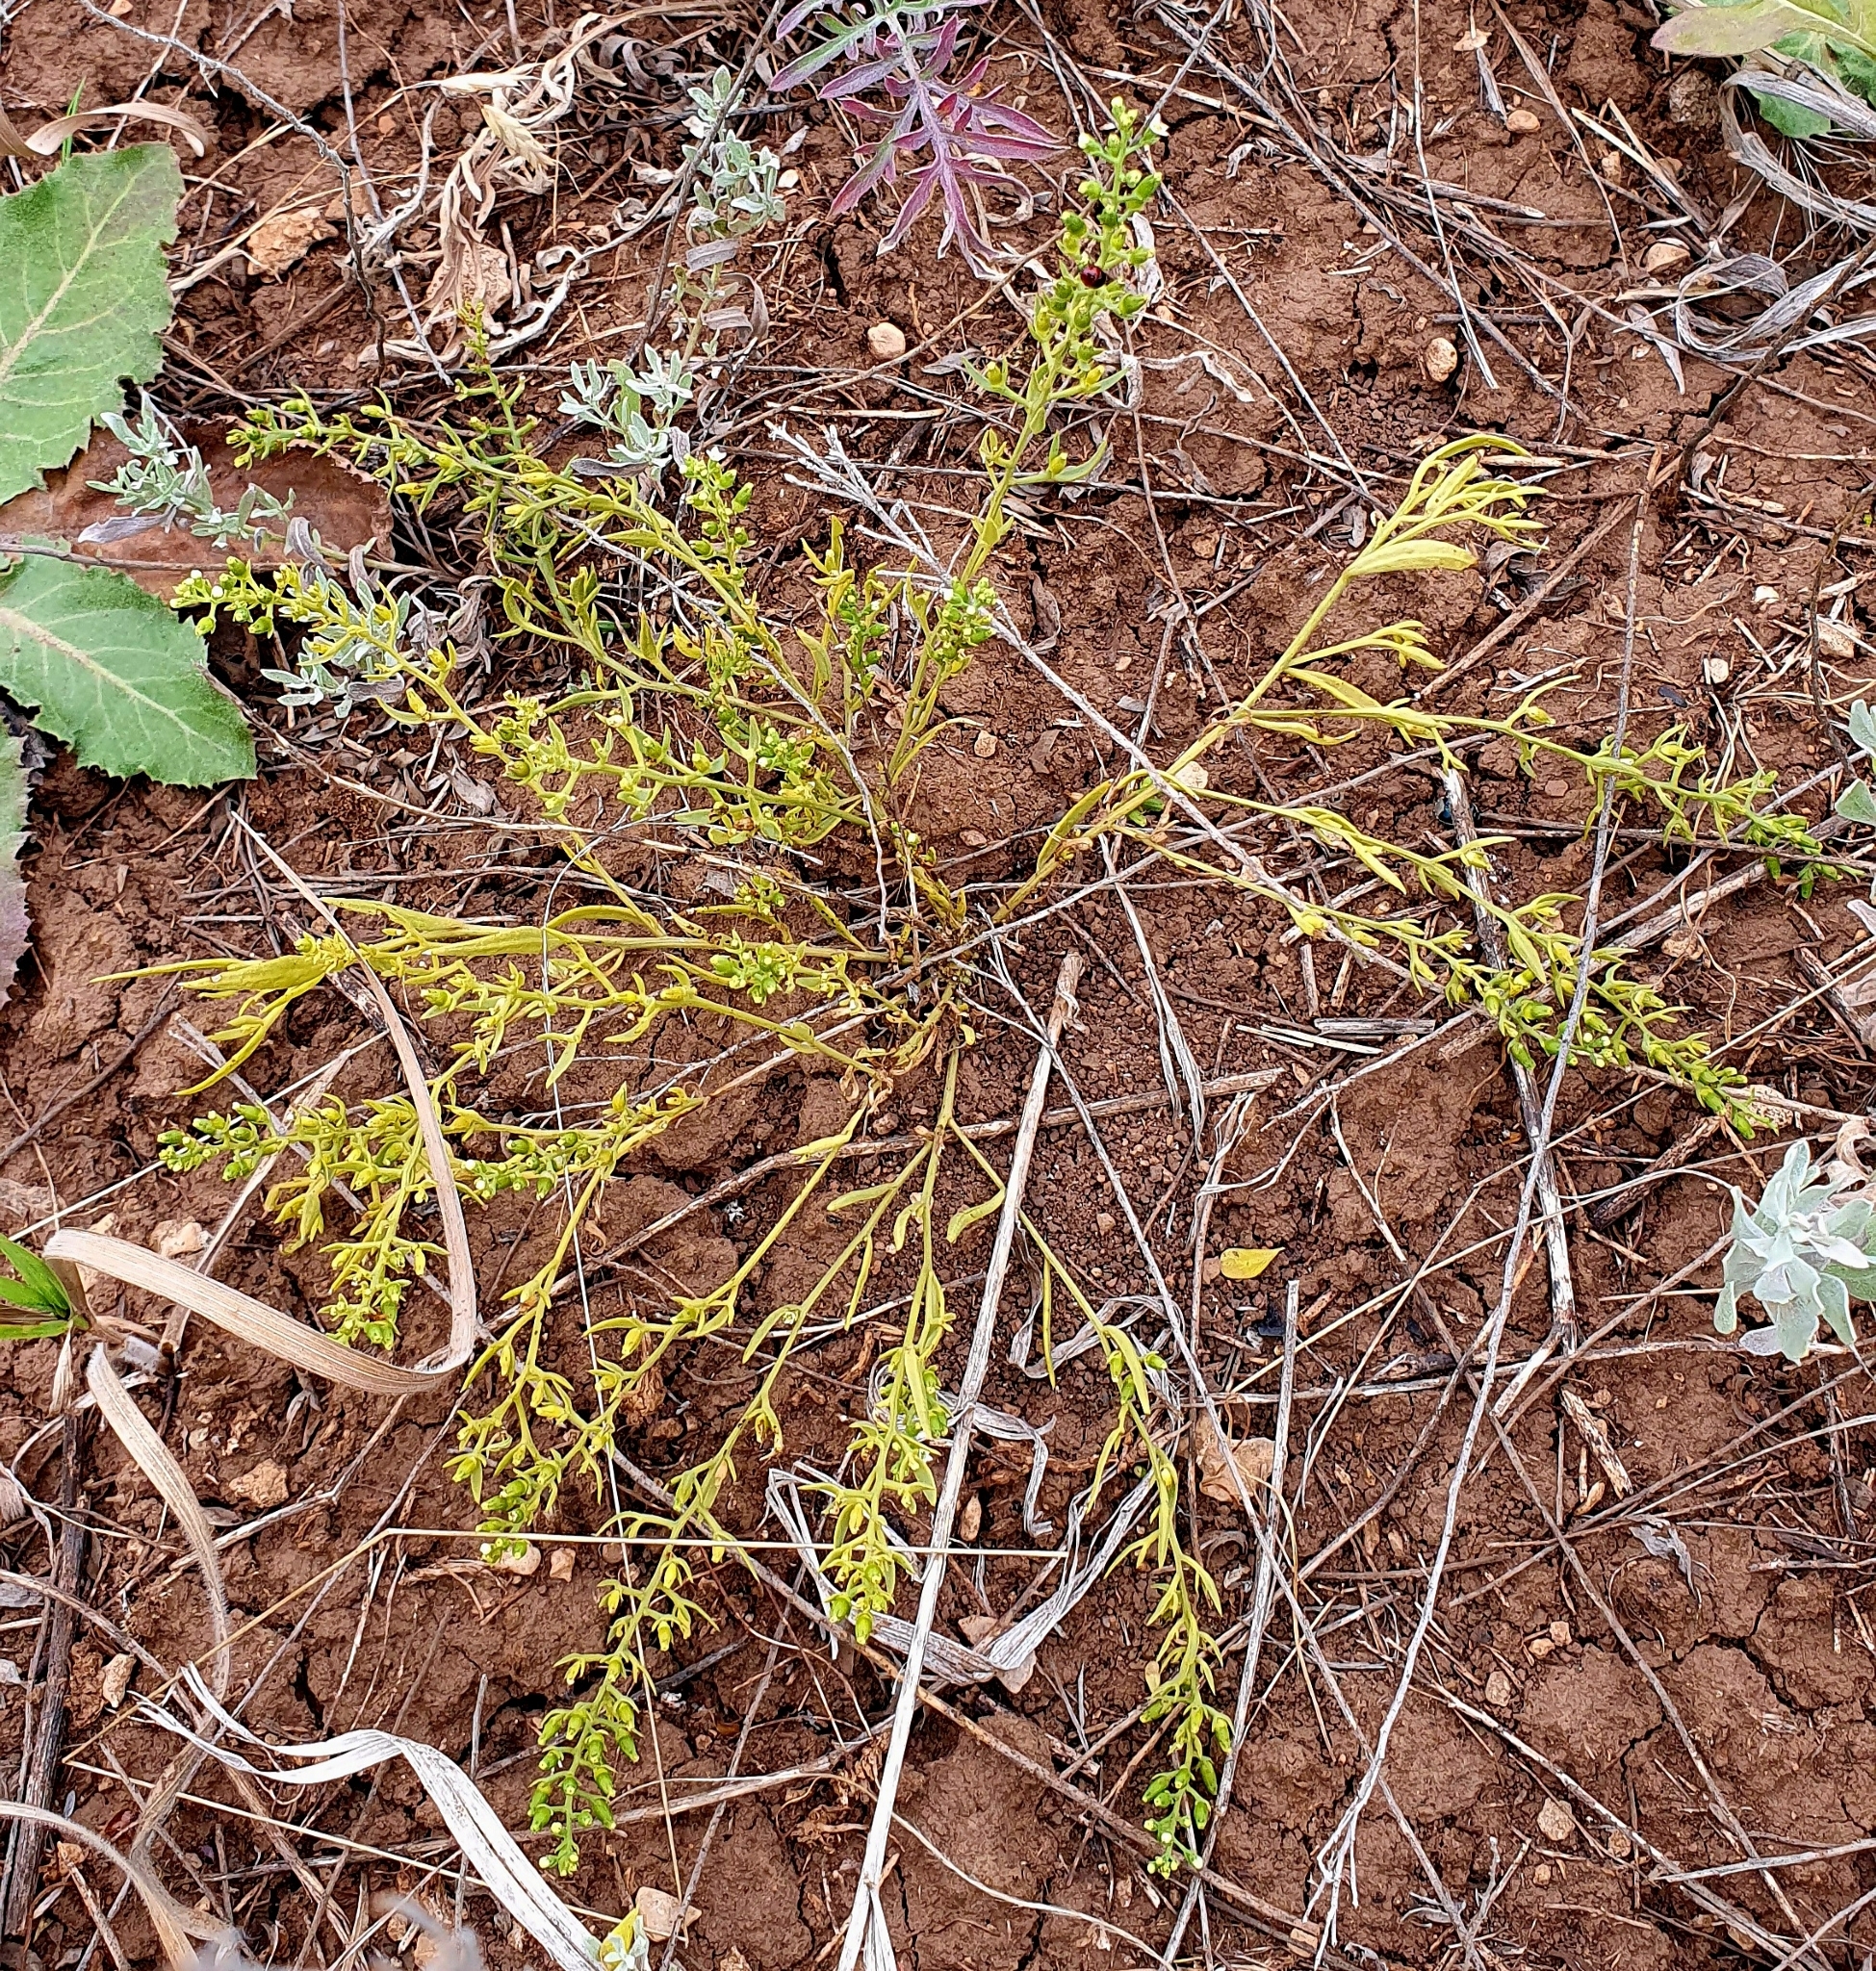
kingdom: Plantae
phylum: Tracheophyta
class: Magnoliopsida
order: Santalales
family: Thesiaceae
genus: Thesium
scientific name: Thesium ramosum
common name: Field thesium
